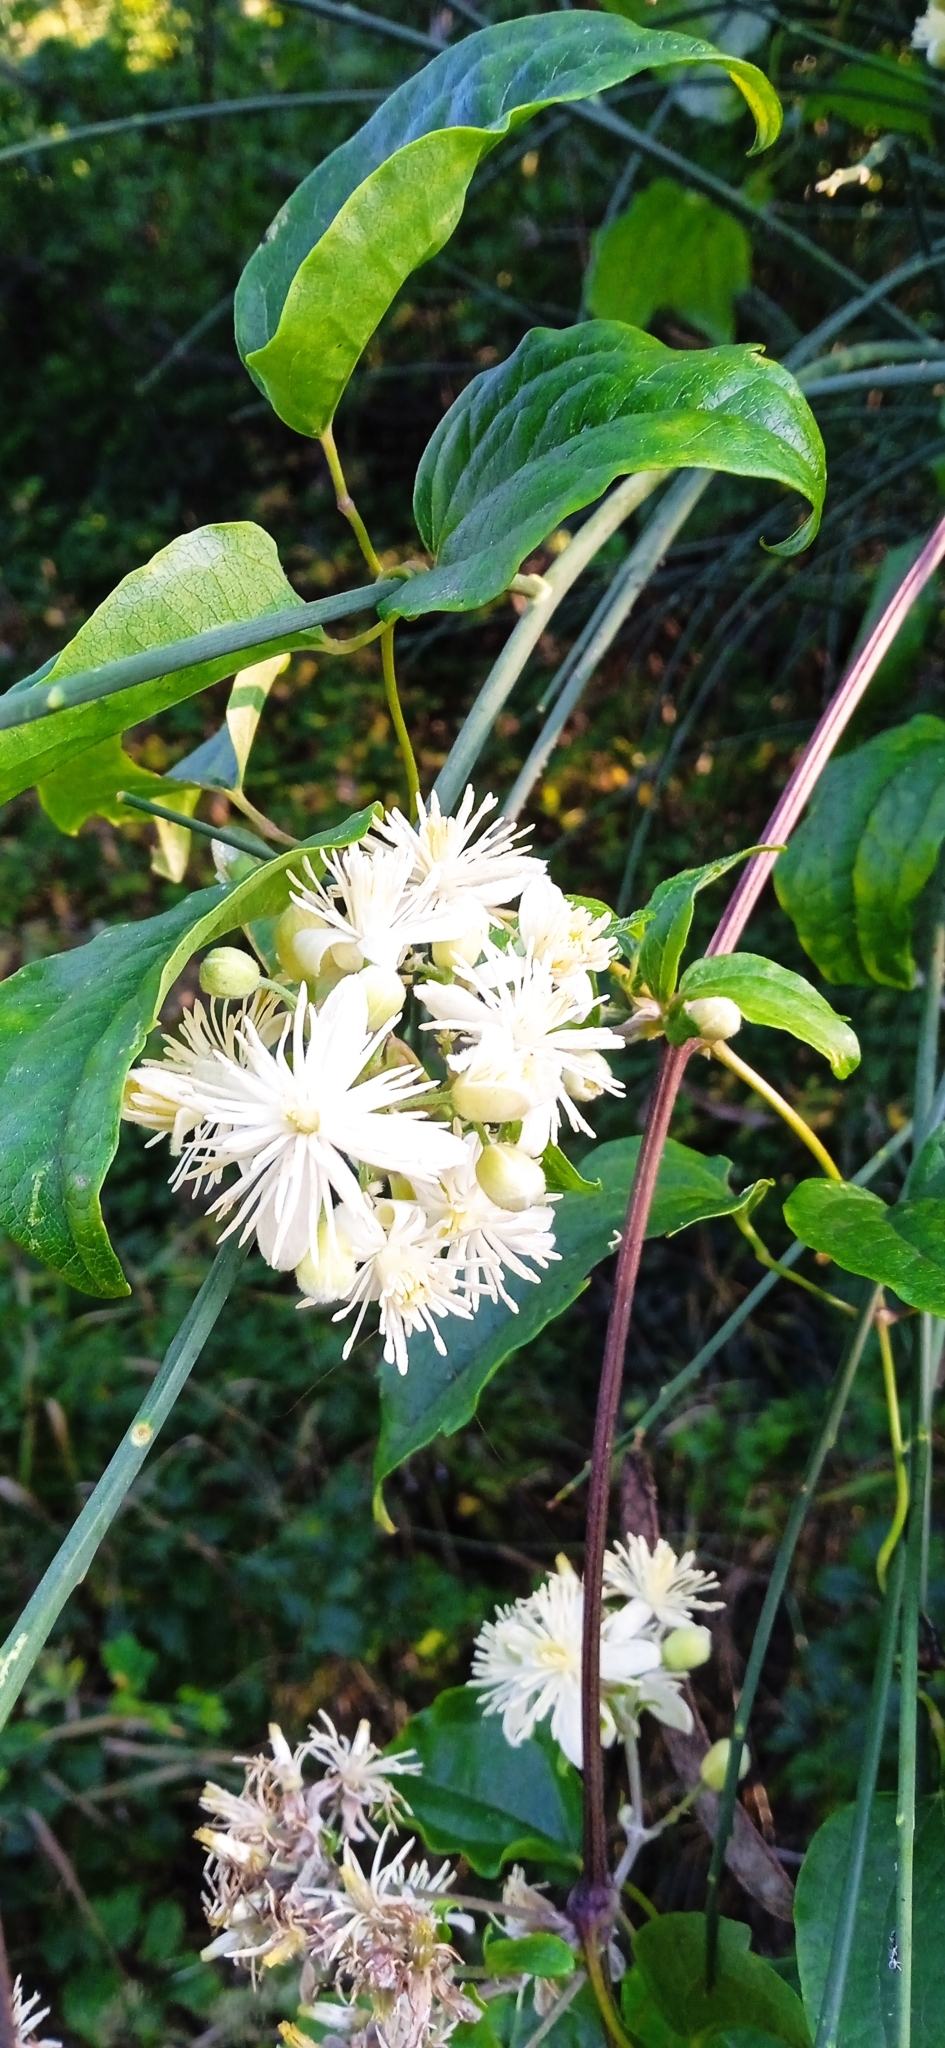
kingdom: Plantae
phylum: Tracheophyta
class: Magnoliopsida
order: Ranunculales
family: Ranunculaceae
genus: Clematis
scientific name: Clematis vitalba
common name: Evergreen clematis
